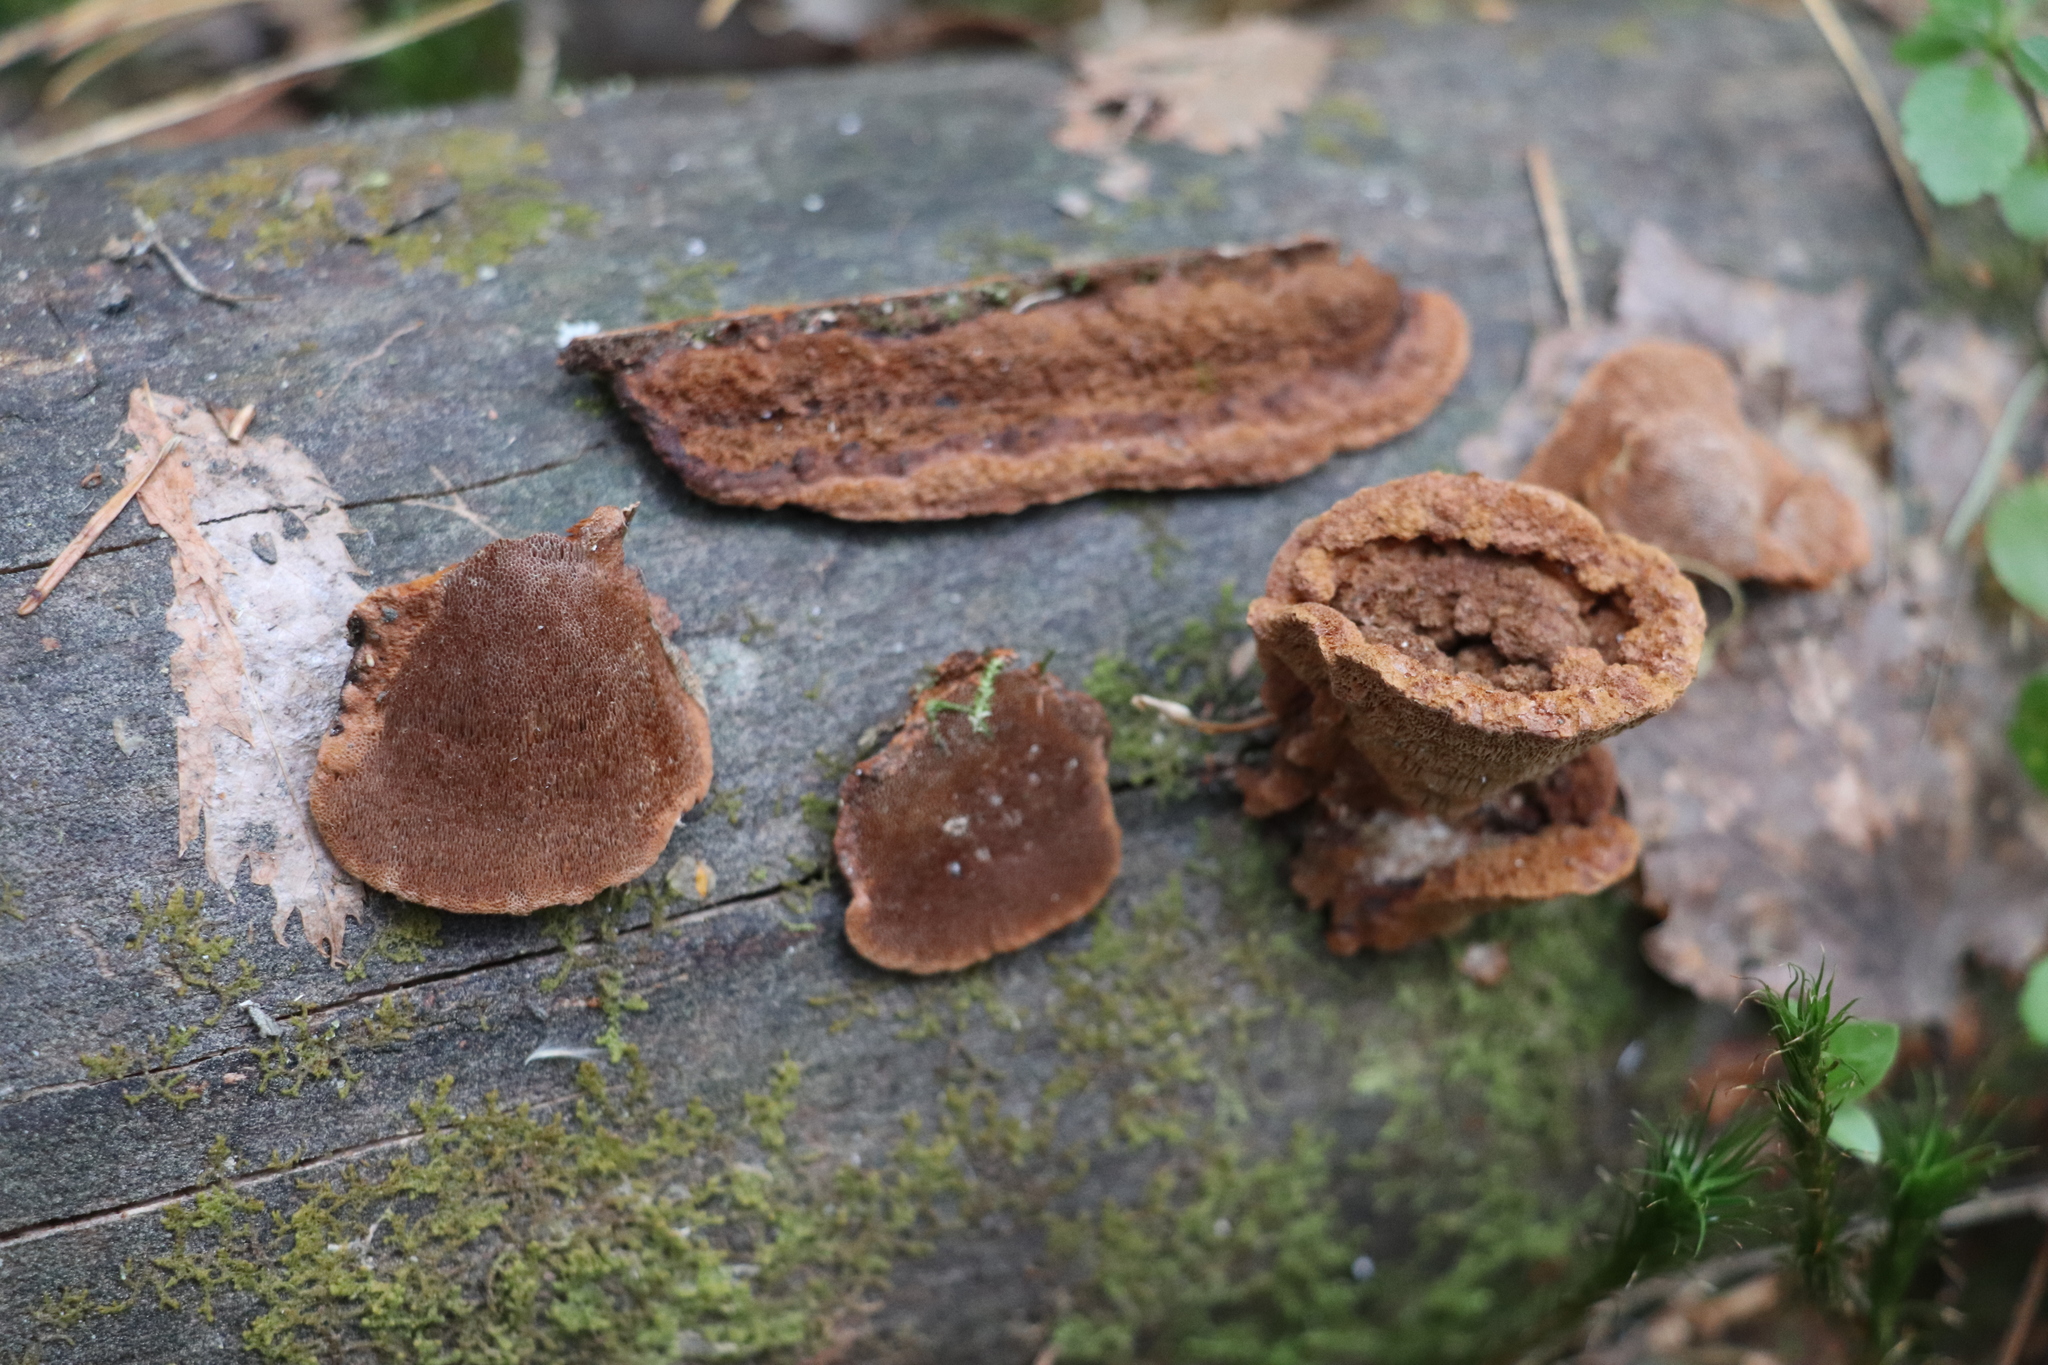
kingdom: Fungi
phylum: Basidiomycota
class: Agaricomycetes
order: Gloeophyllales
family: Gloeophyllaceae
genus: Gloeophyllum
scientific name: Gloeophyllum protractum
